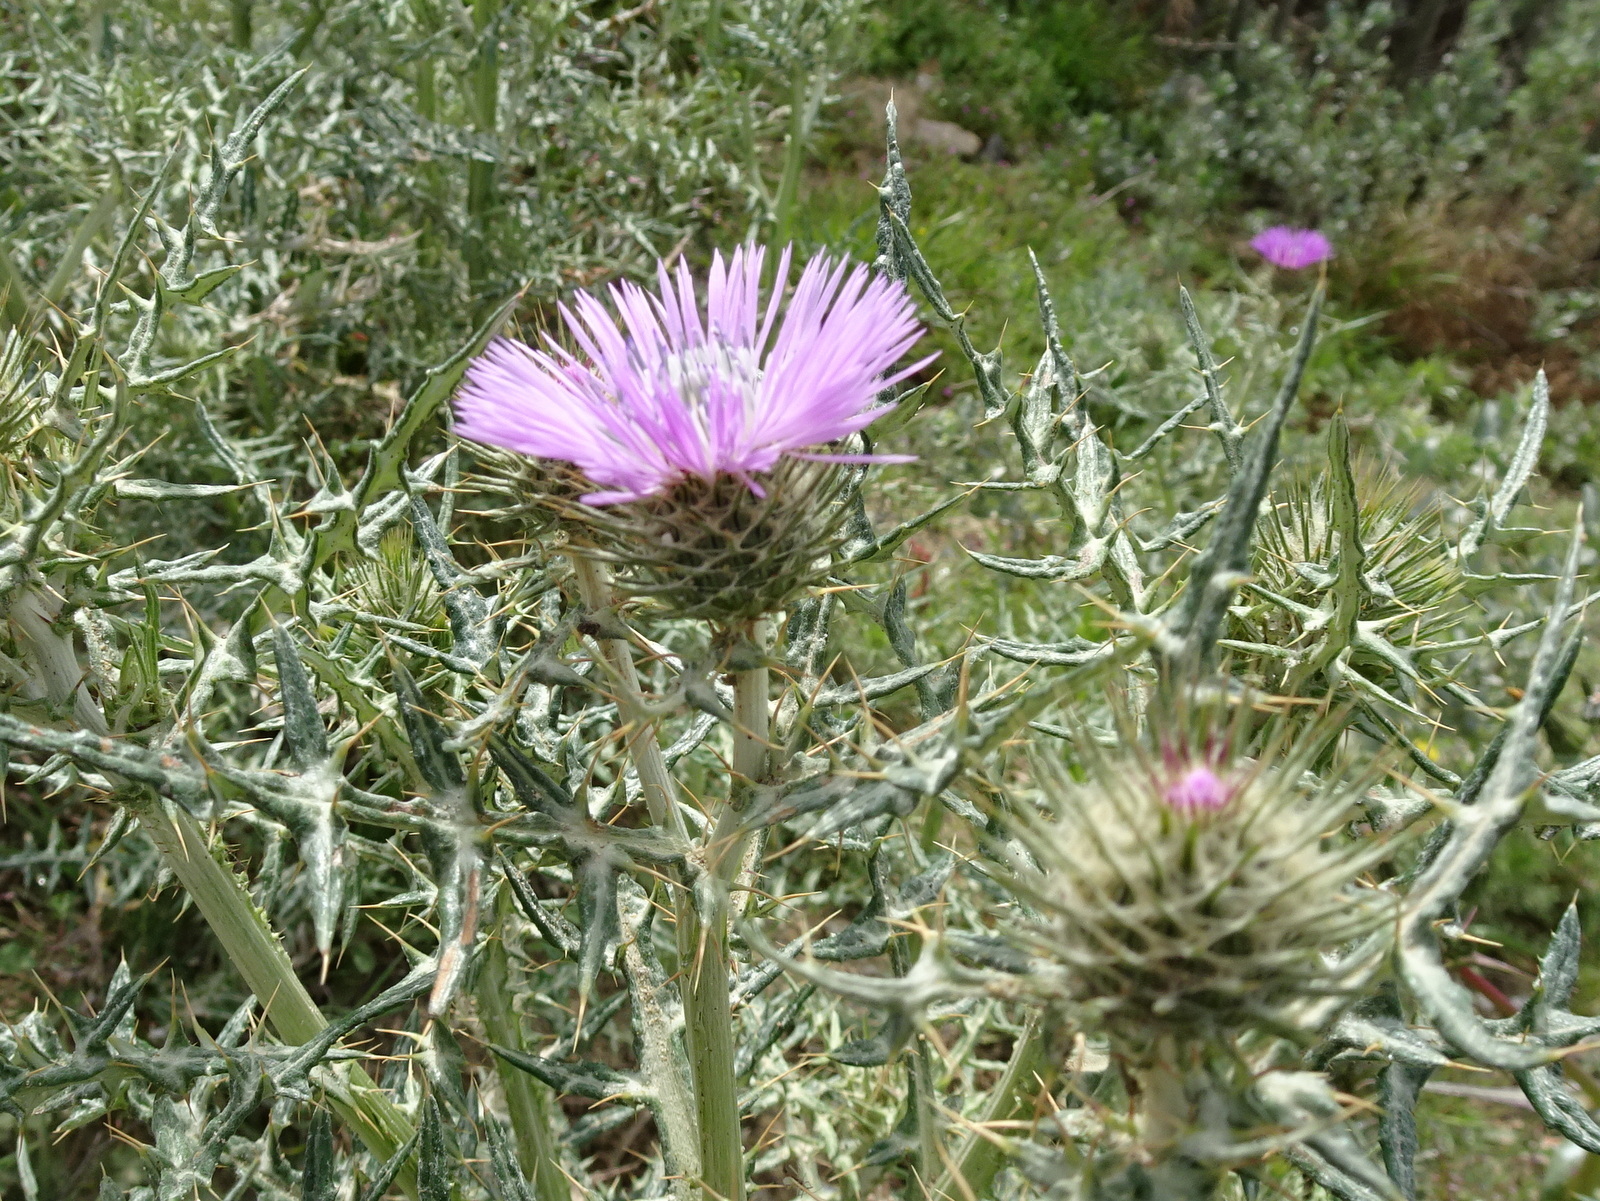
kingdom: Plantae
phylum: Tracheophyta
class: Magnoliopsida
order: Asterales
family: Asteraceae
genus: Galactites
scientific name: Galactites tomentosa
